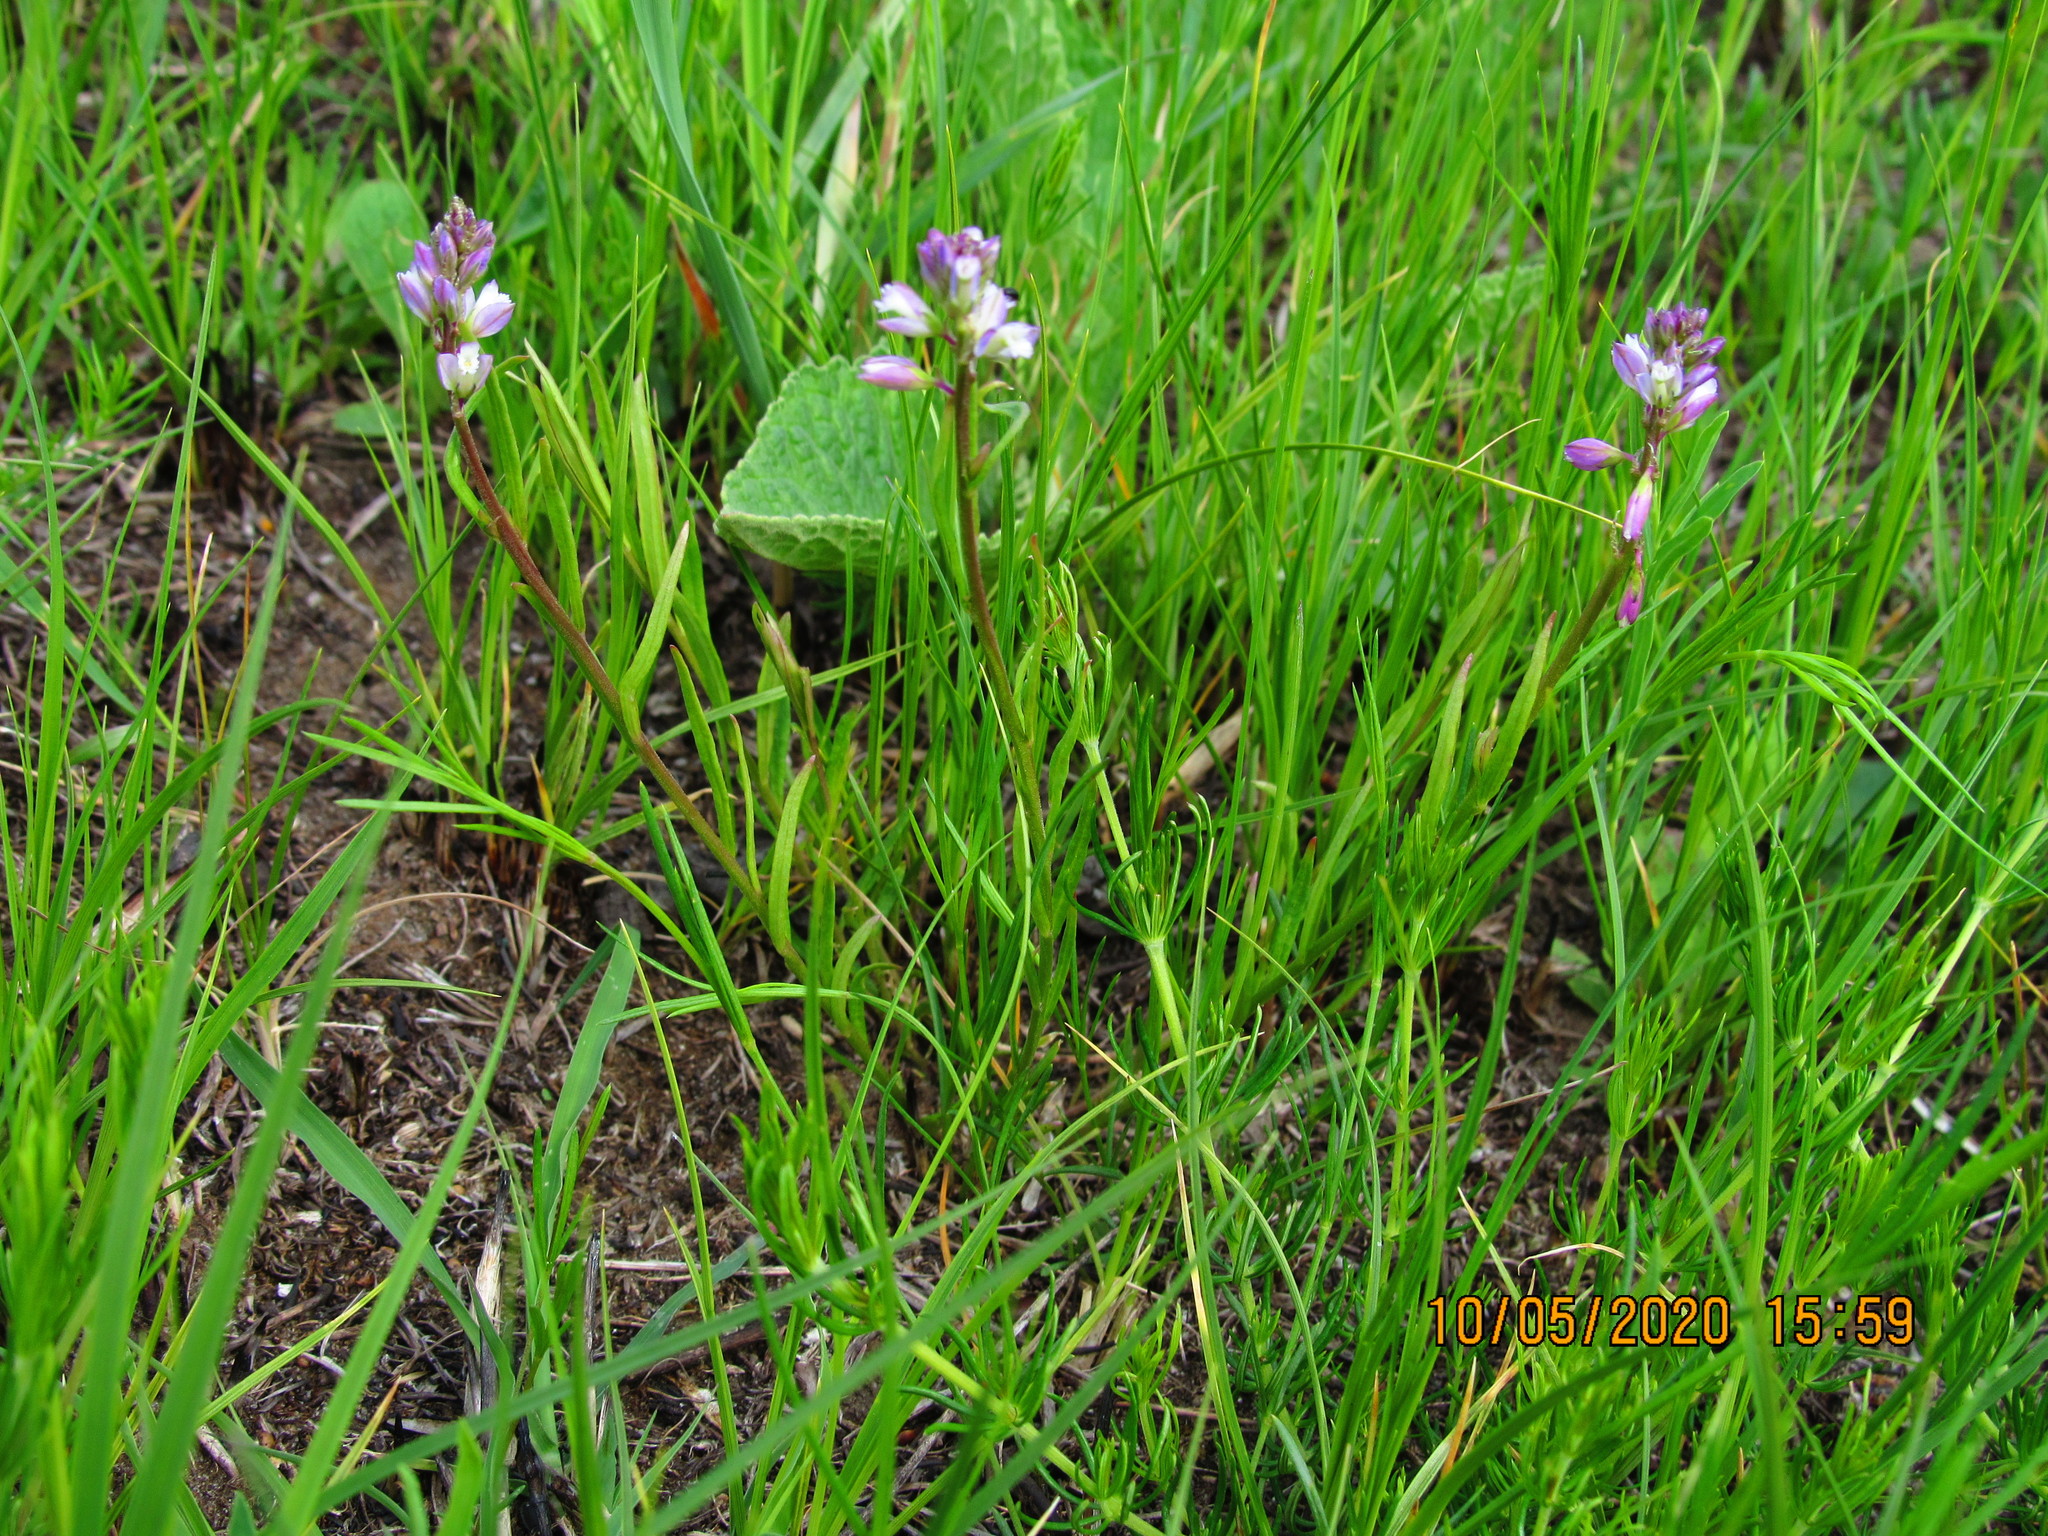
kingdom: Plantae
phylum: Tracheophyta
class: Magnoliopsida
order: Fabales
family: Polygalaceae
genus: Polygala
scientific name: Polygala comosa
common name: Tufted milkwort
